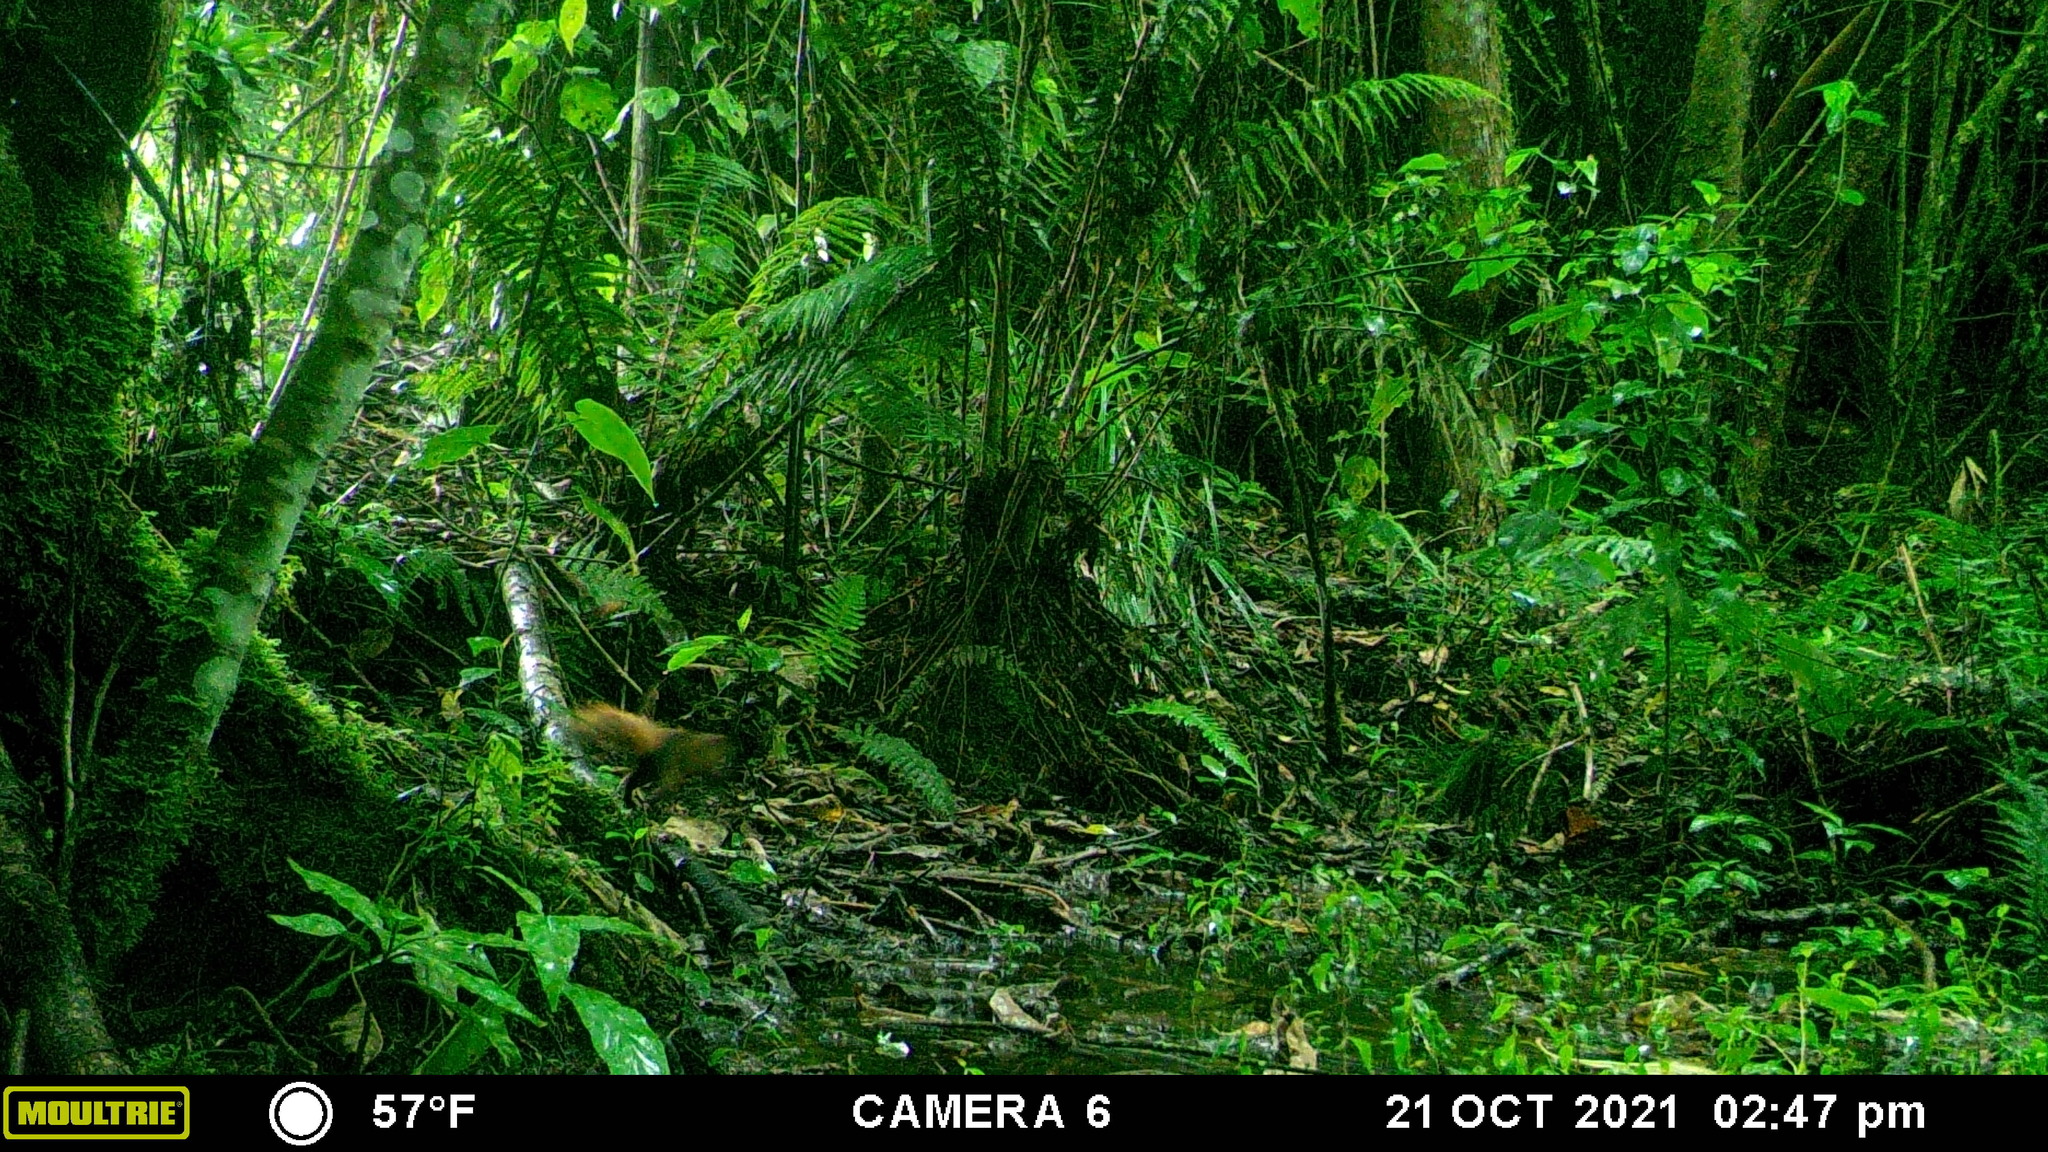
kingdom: Animalia
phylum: Chordata
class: Mammalia
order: Rodentia
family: Sciuridae
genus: Sciurus
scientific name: Sciurus granatensis
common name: Red-tailed squirrel
